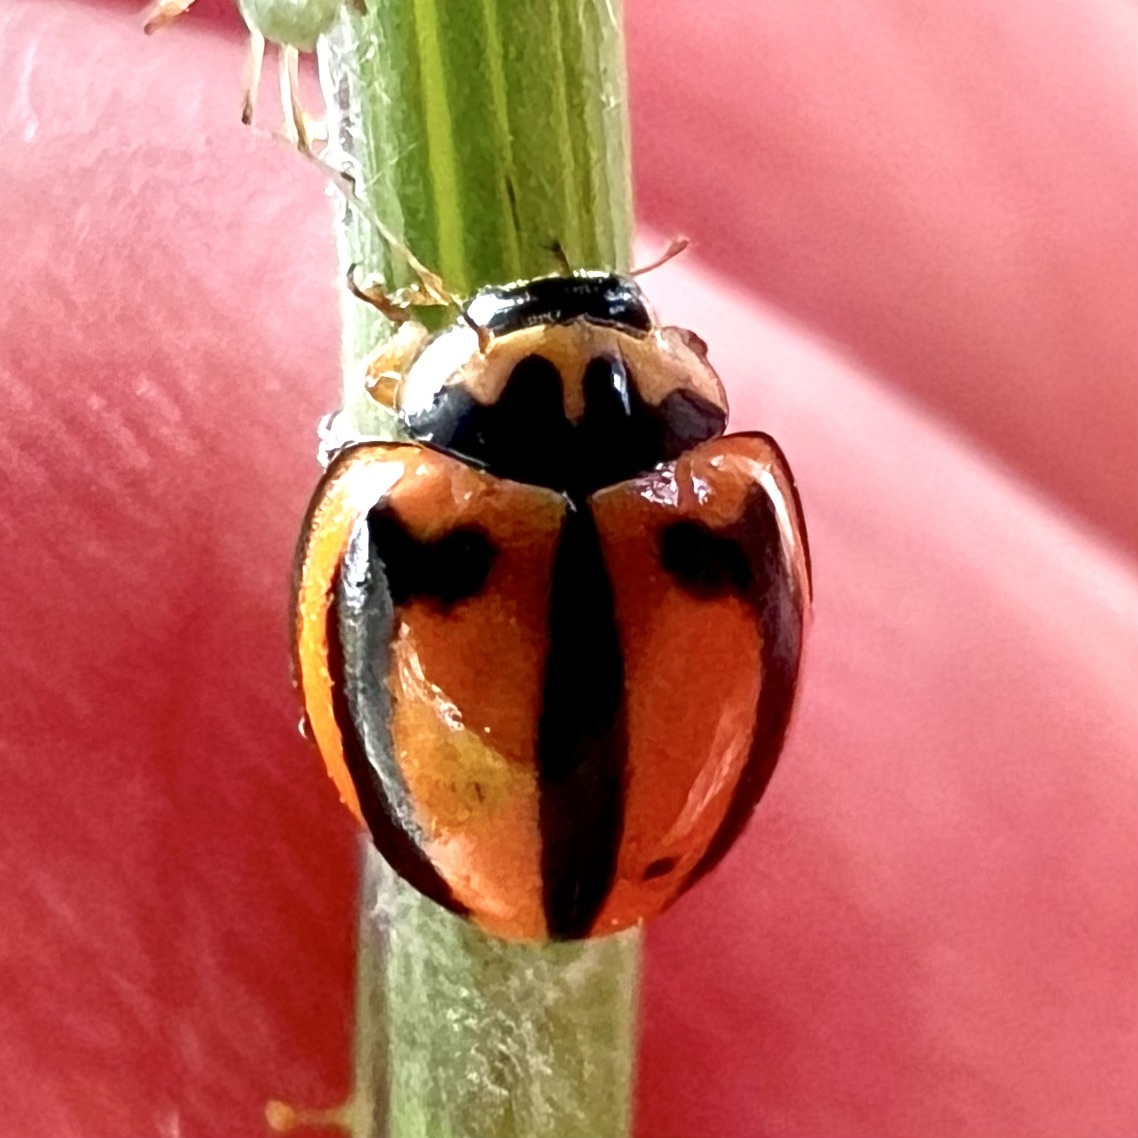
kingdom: Animalia
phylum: Arthropoda
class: Insecta
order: Coleoptera
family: Coccinellidae
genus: Micraspis
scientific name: Micraspis frenata
